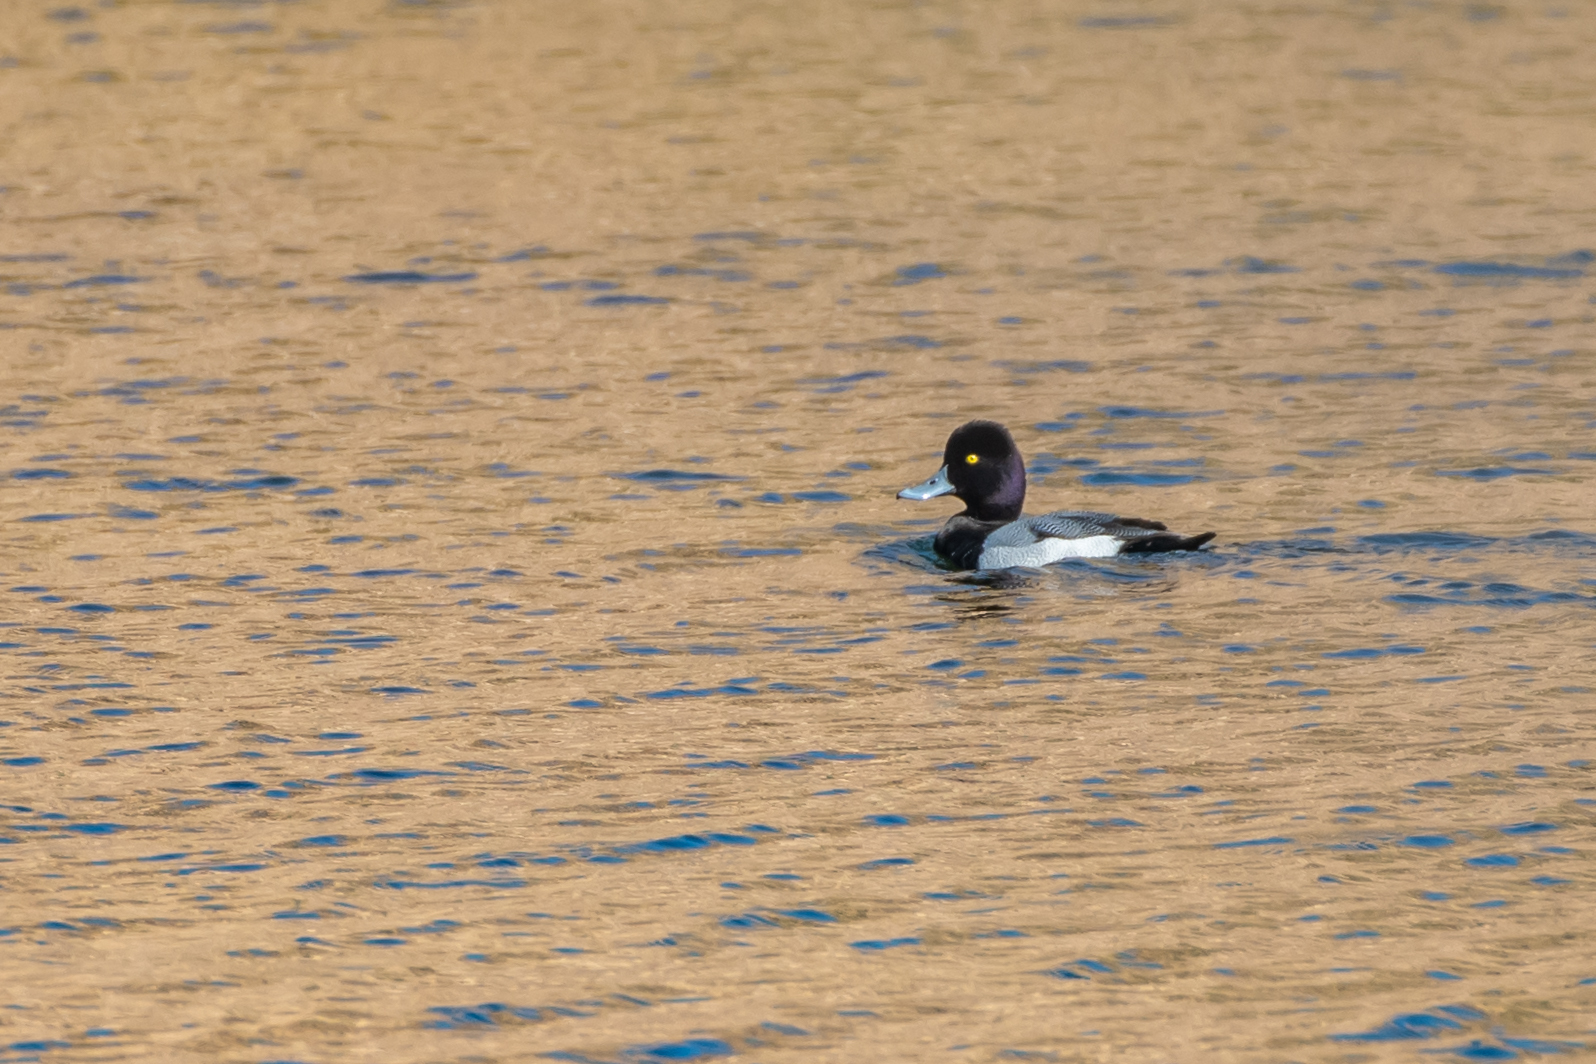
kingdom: Animalia
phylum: Chordata
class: Aves
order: Anseriformes
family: Anatidae
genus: Aythya
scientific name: Aythya affinis
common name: Lesser scaup
